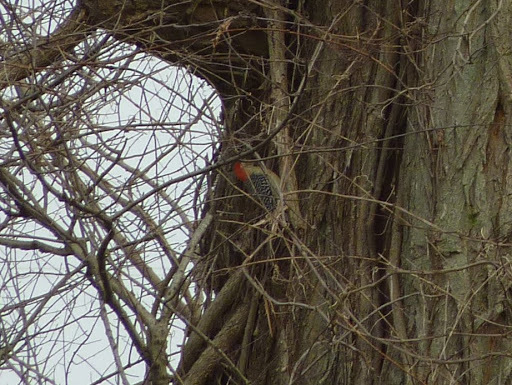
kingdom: Animalia
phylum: Chordata
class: Aves
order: Piciformes
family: Picidae
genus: Melanerpes
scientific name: Melanerpes carolinus
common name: Red-bellied woodpecker
